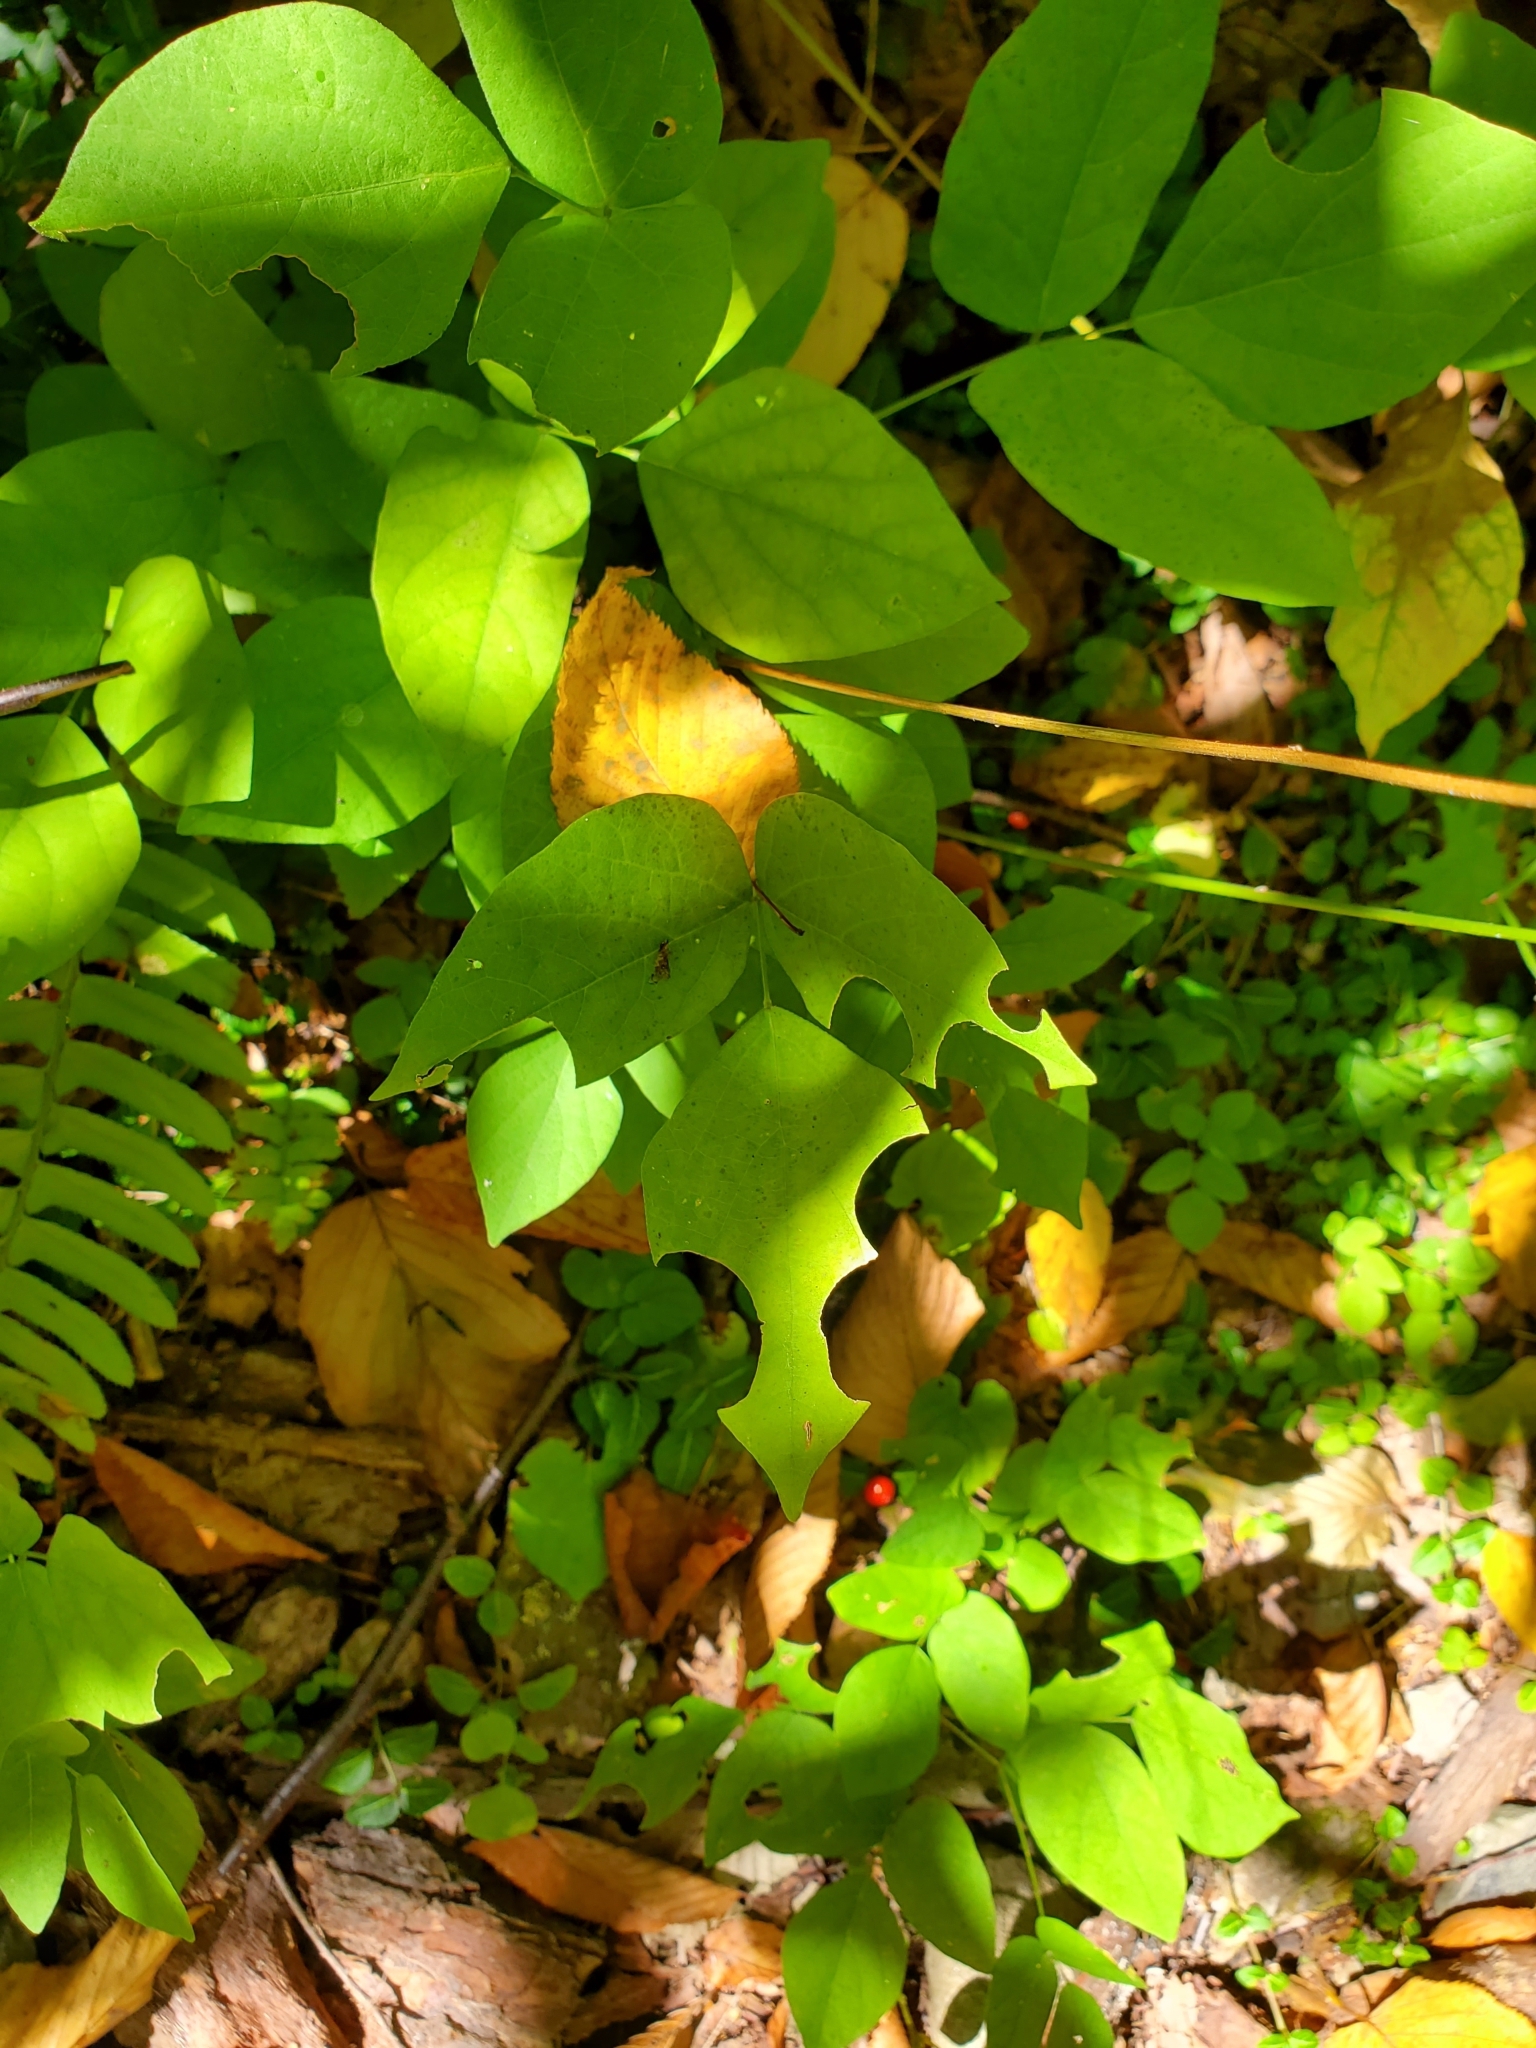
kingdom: Plantae
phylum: Tracheophyta
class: Magnoliopsida
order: Fabales
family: Fabaceae
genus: Hylodesmum
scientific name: Hylodesmum nudiflorum
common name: Bare-stemmed tick-trefoil
